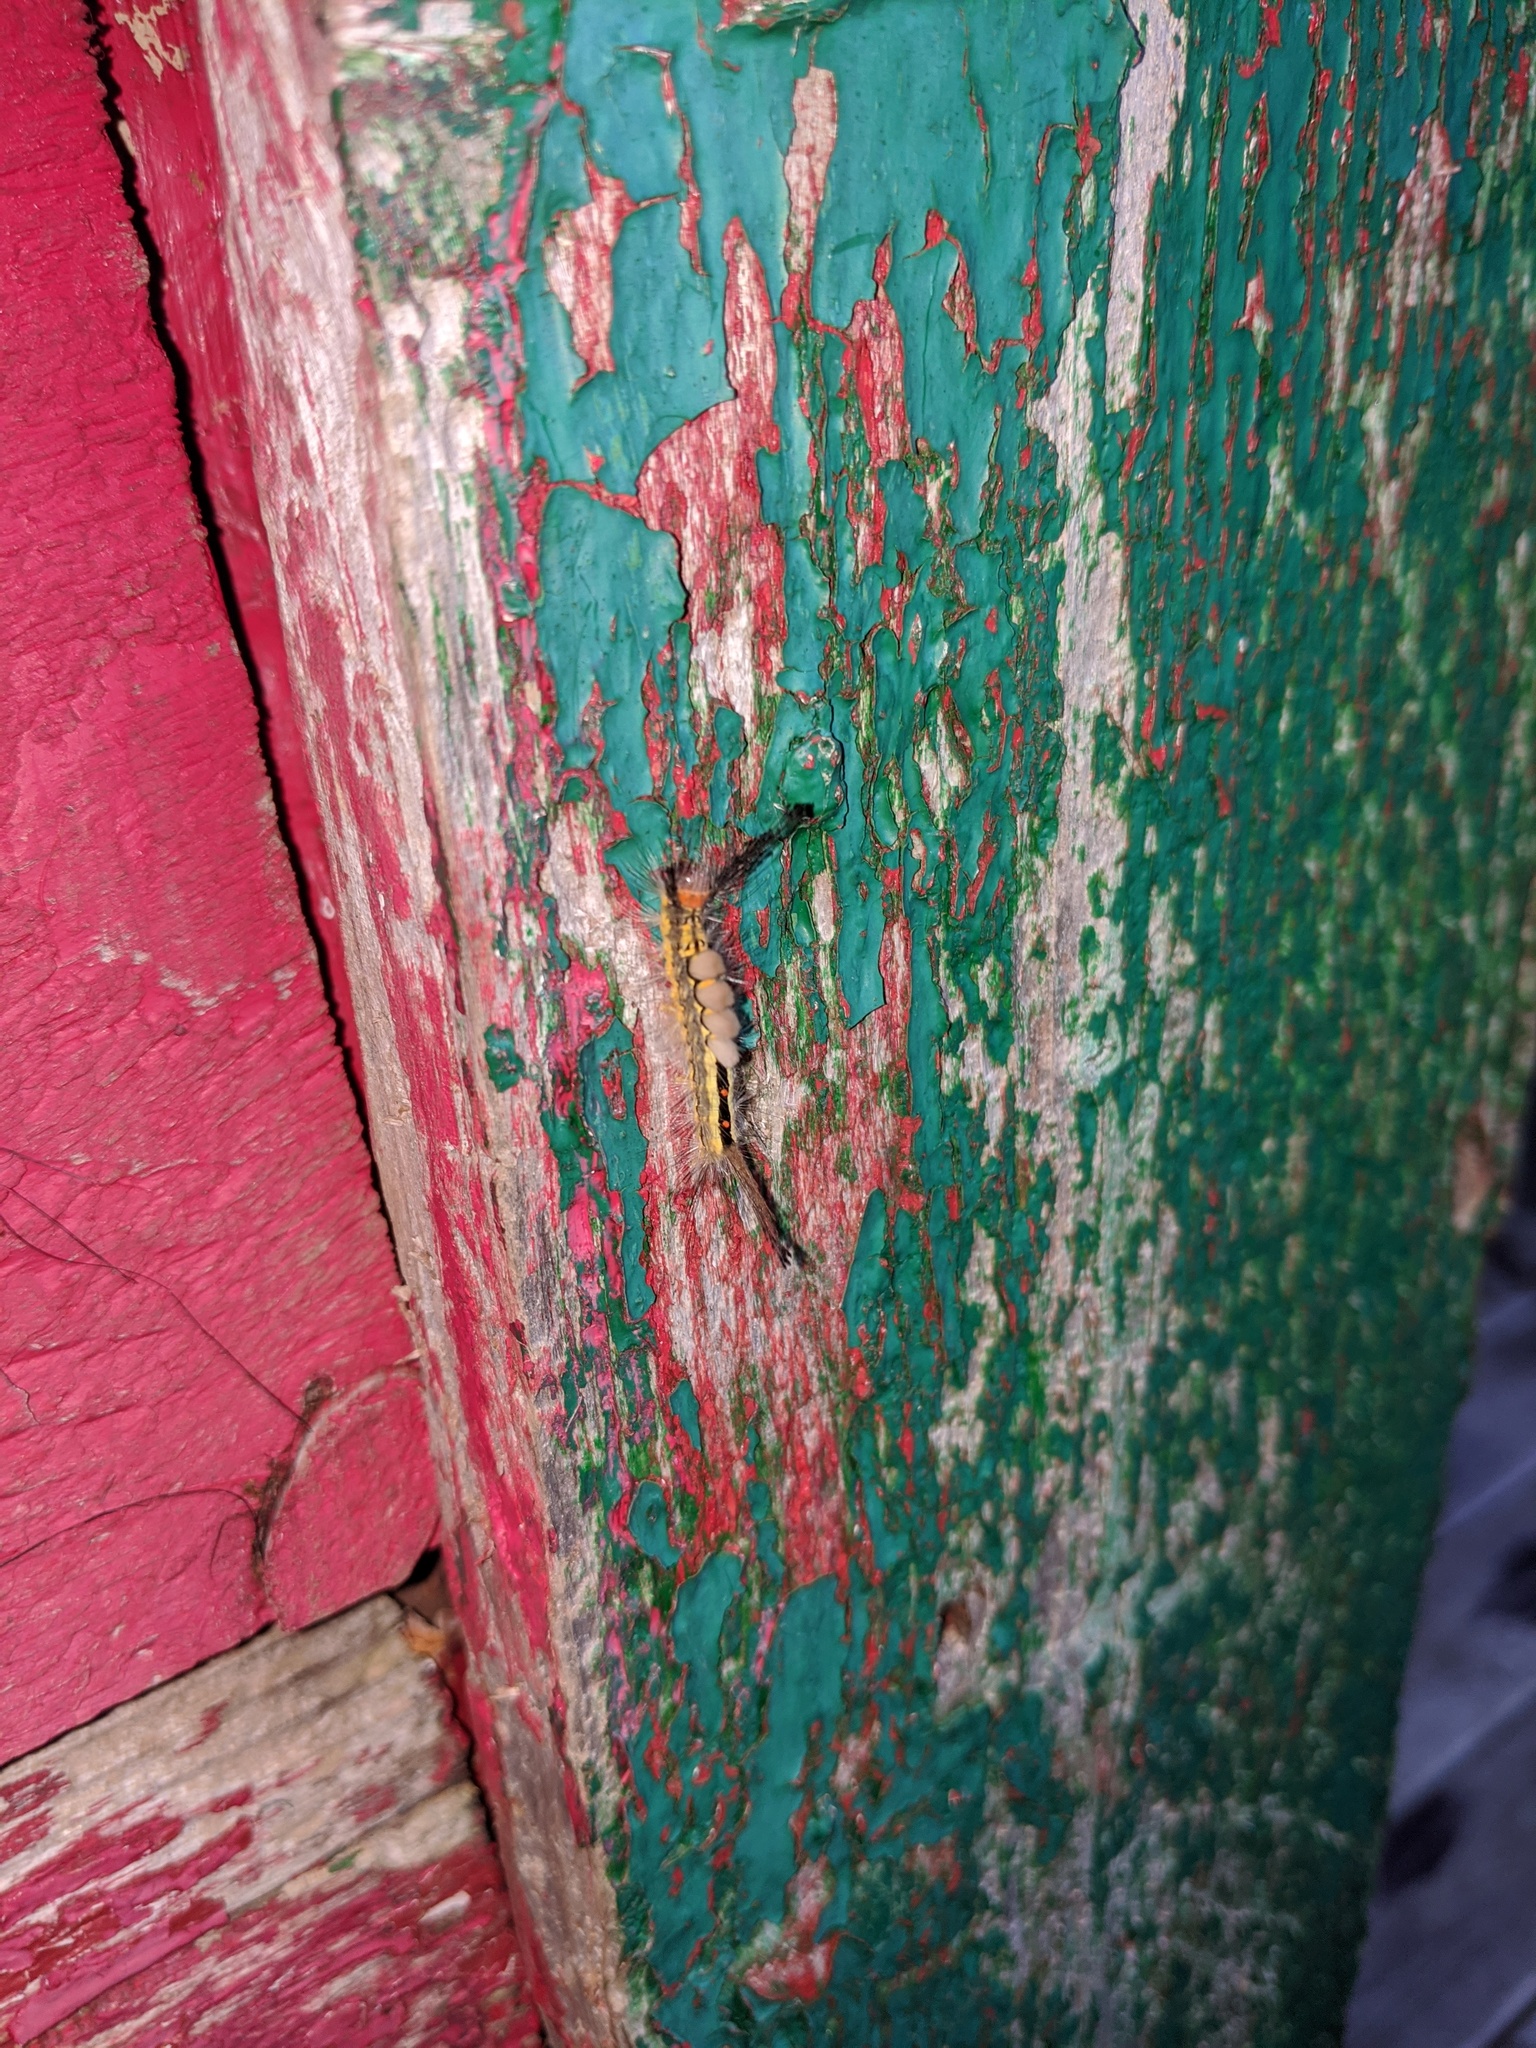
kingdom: Animalia
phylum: Arthropoda
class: Insecta
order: Lepidoptera
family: Erebidae
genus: Orgyia
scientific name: Orgyia leucostigma
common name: White-marked tussock moth
